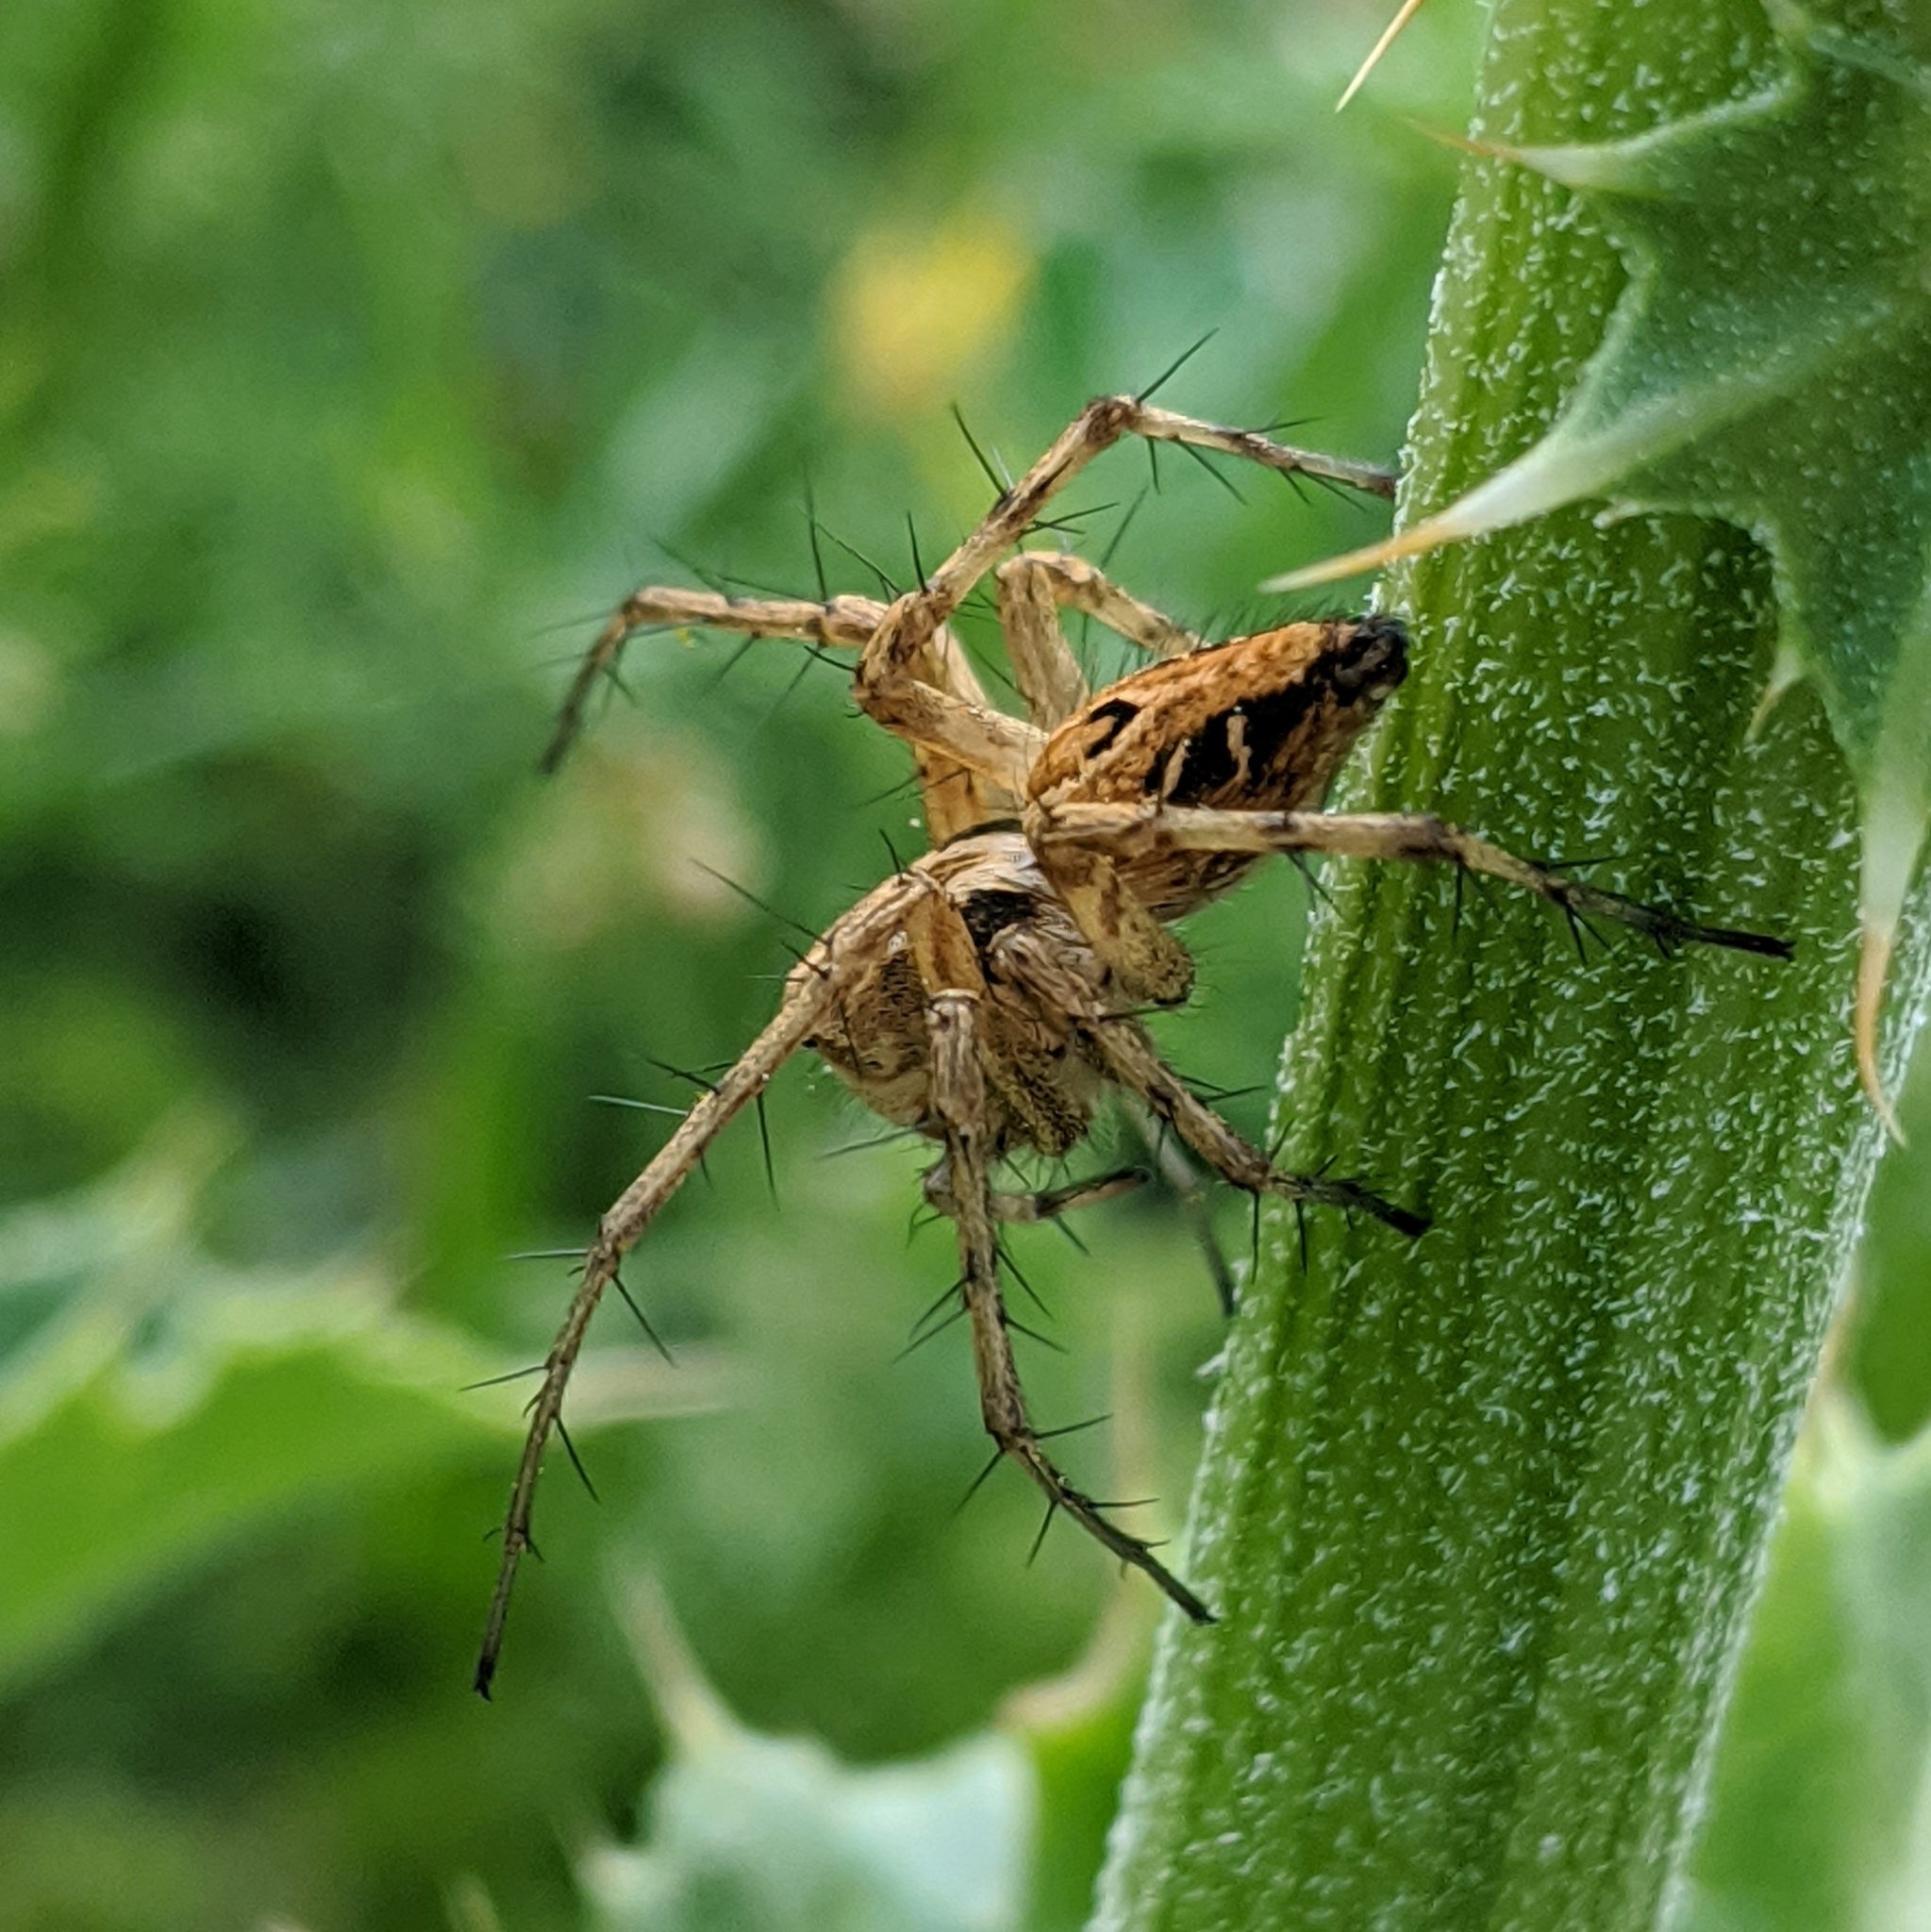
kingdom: Animalia
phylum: Arthropoda
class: Arachnida
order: Araneae
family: Oxyopidae
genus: Oxyopes
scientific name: Oxyopes heterophthalmus
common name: Lynx spider
